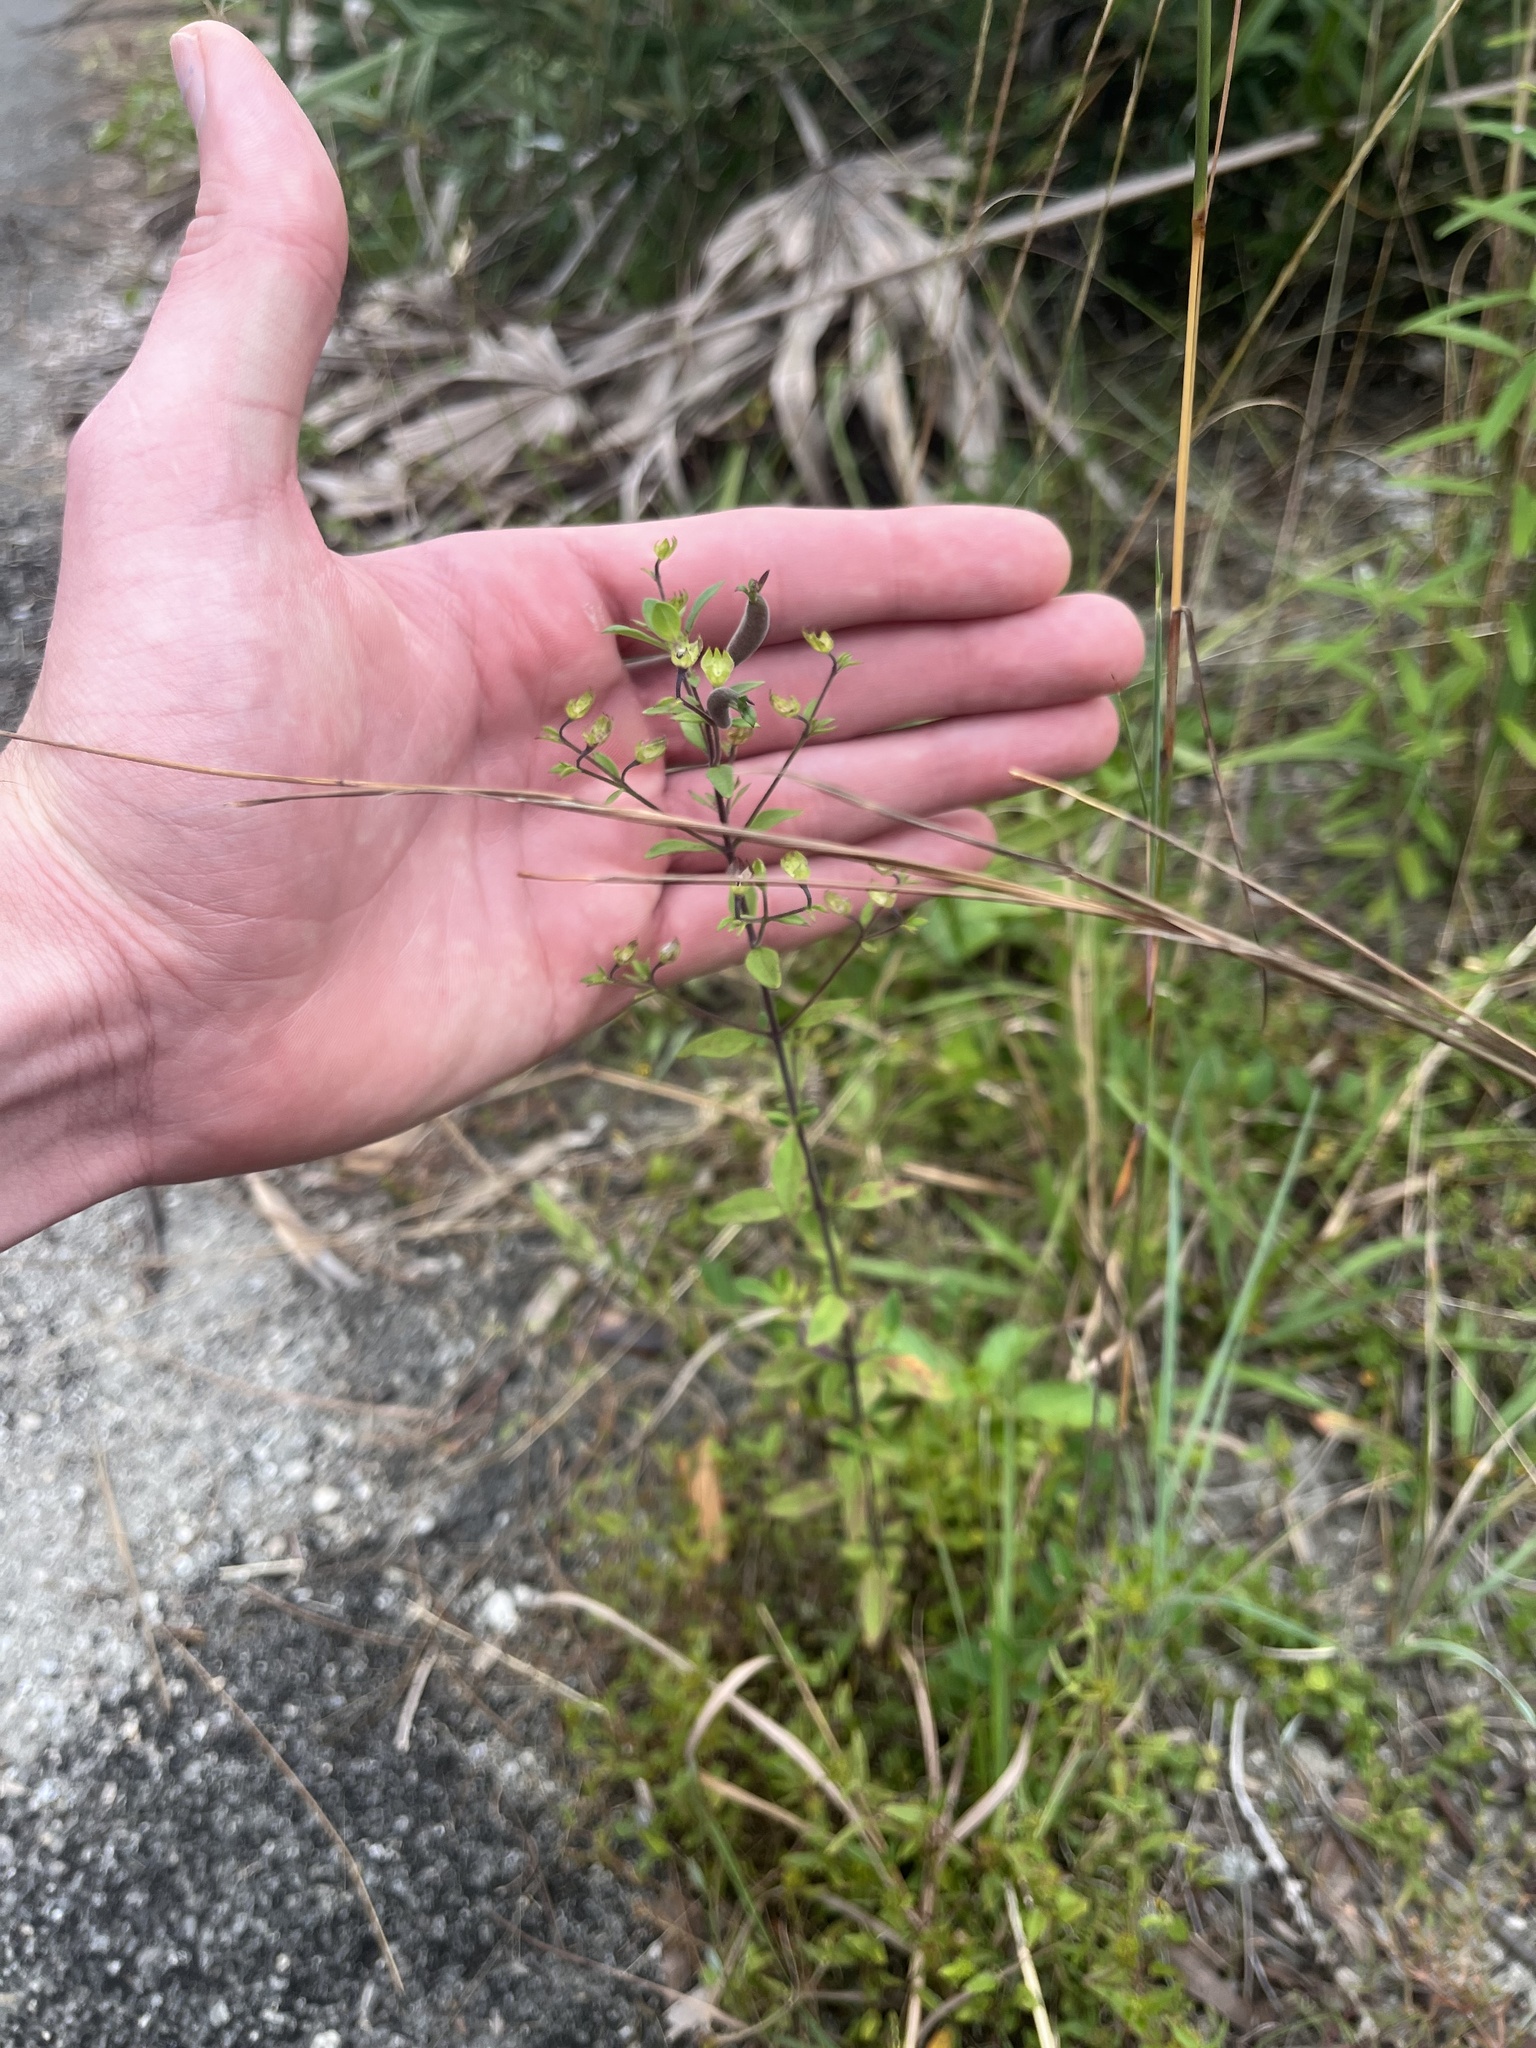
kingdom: Plantae
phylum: Tracheophyta
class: Magnoliopsida
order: Lamiales
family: Lamiaceae
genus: Trichostema
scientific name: Trichostema
